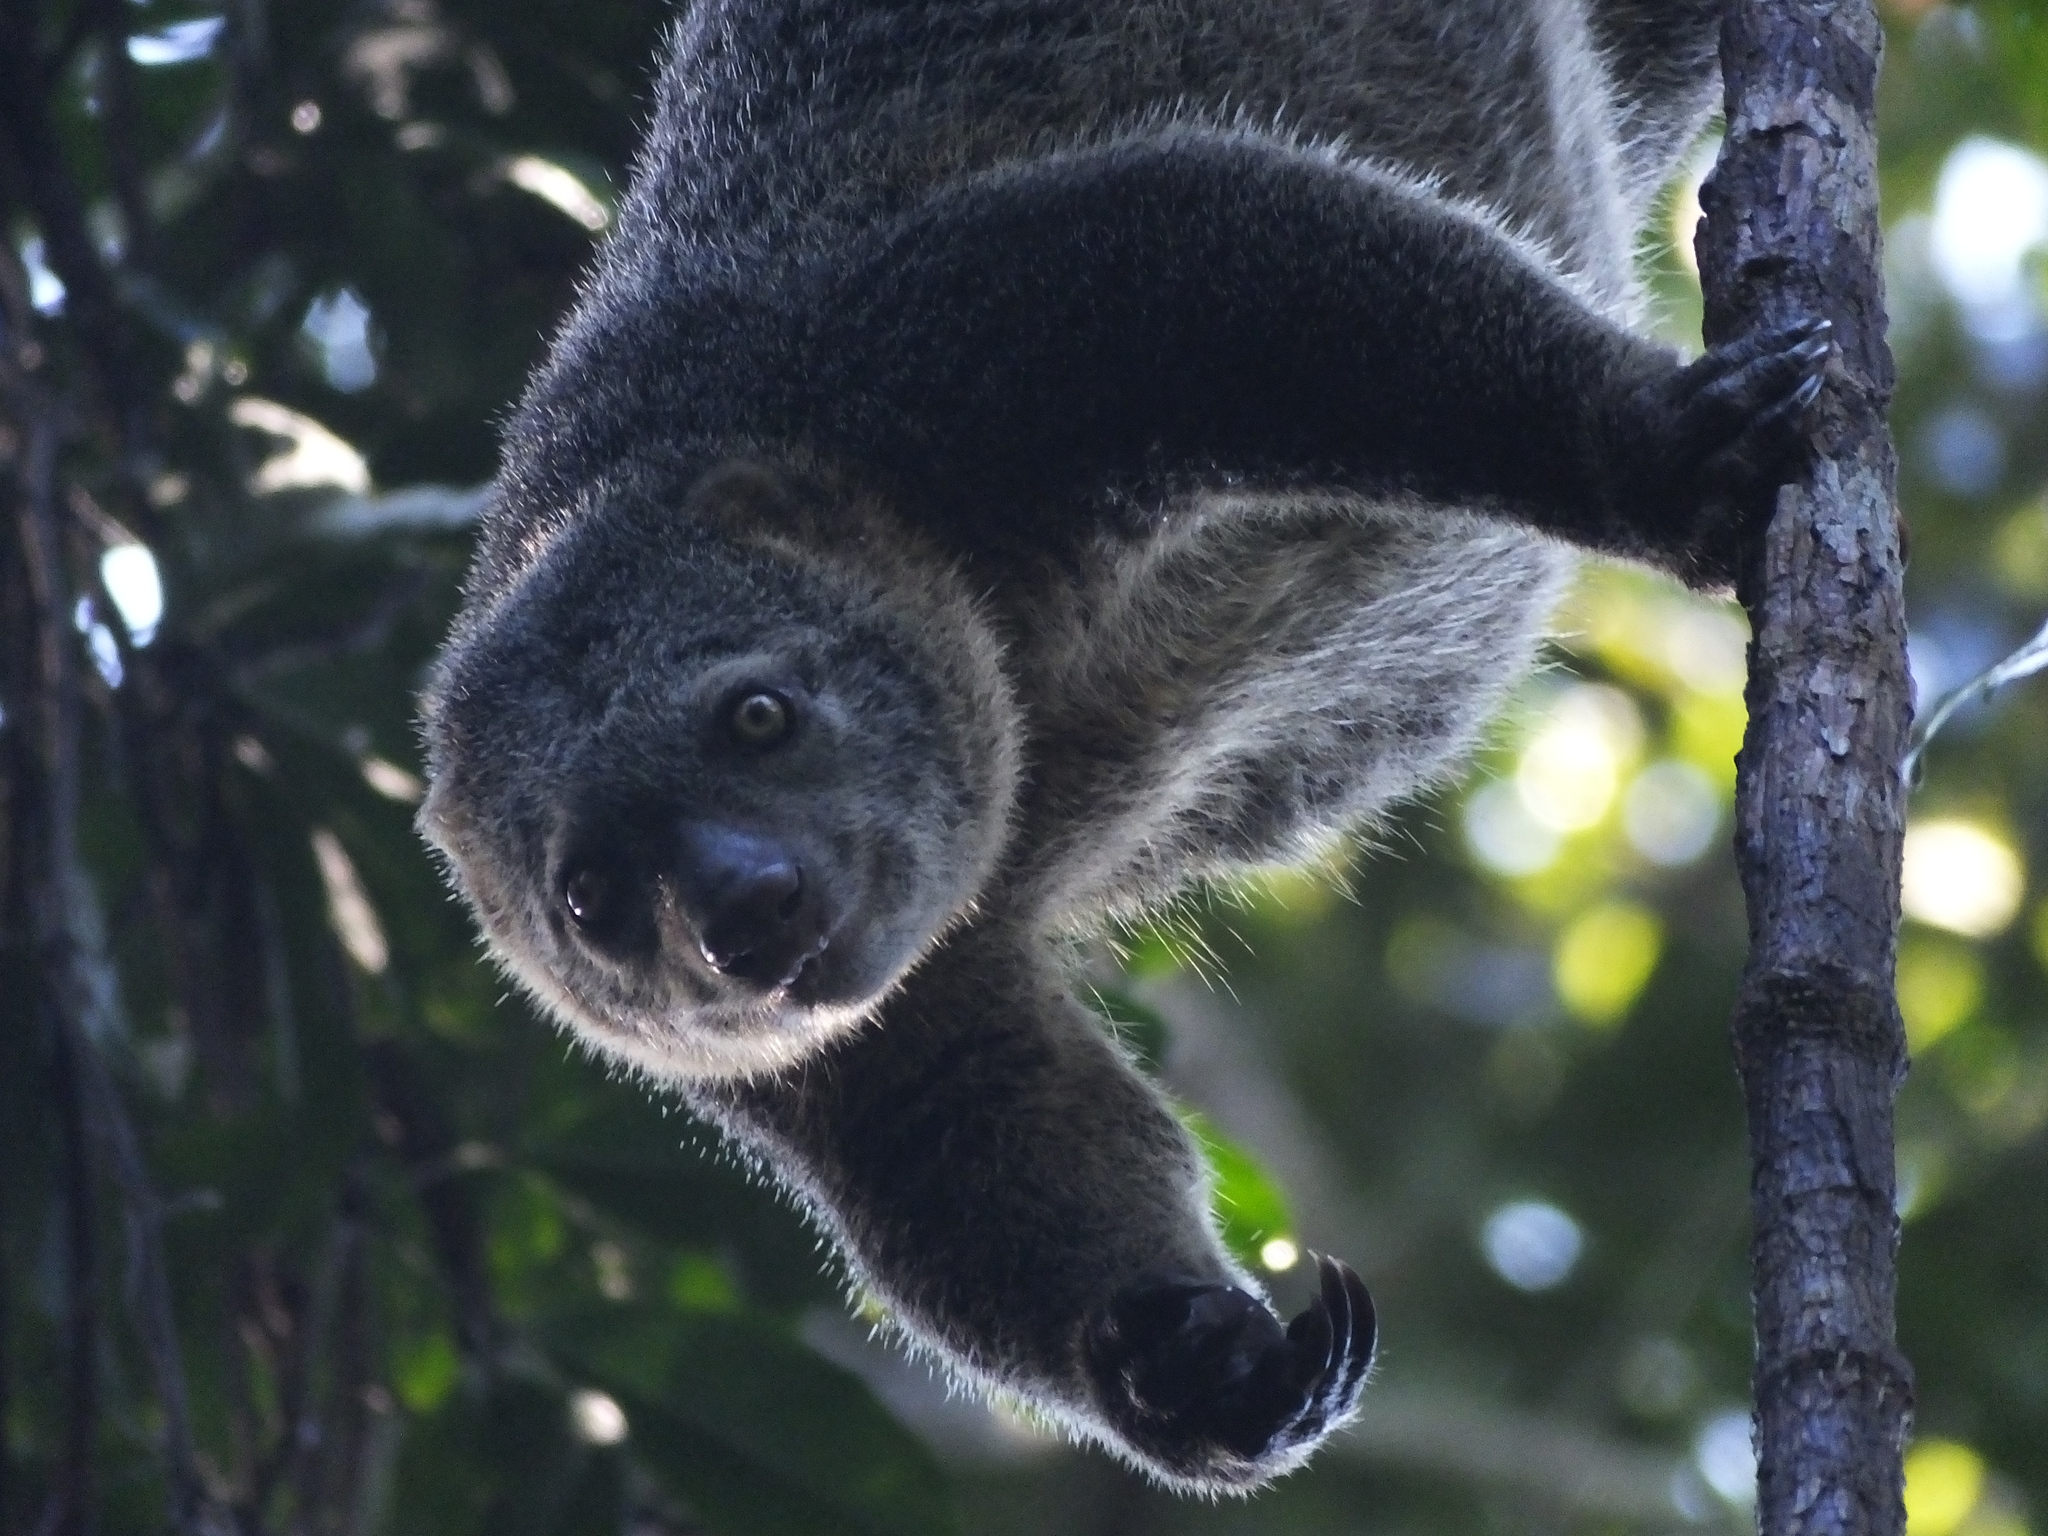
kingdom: Animalia
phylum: Chordata
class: Mammalia
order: Diprotodontia
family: Phalangeridae
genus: Ailurops
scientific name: Ailurops ursinus
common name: Sulawesi bear cuscus
